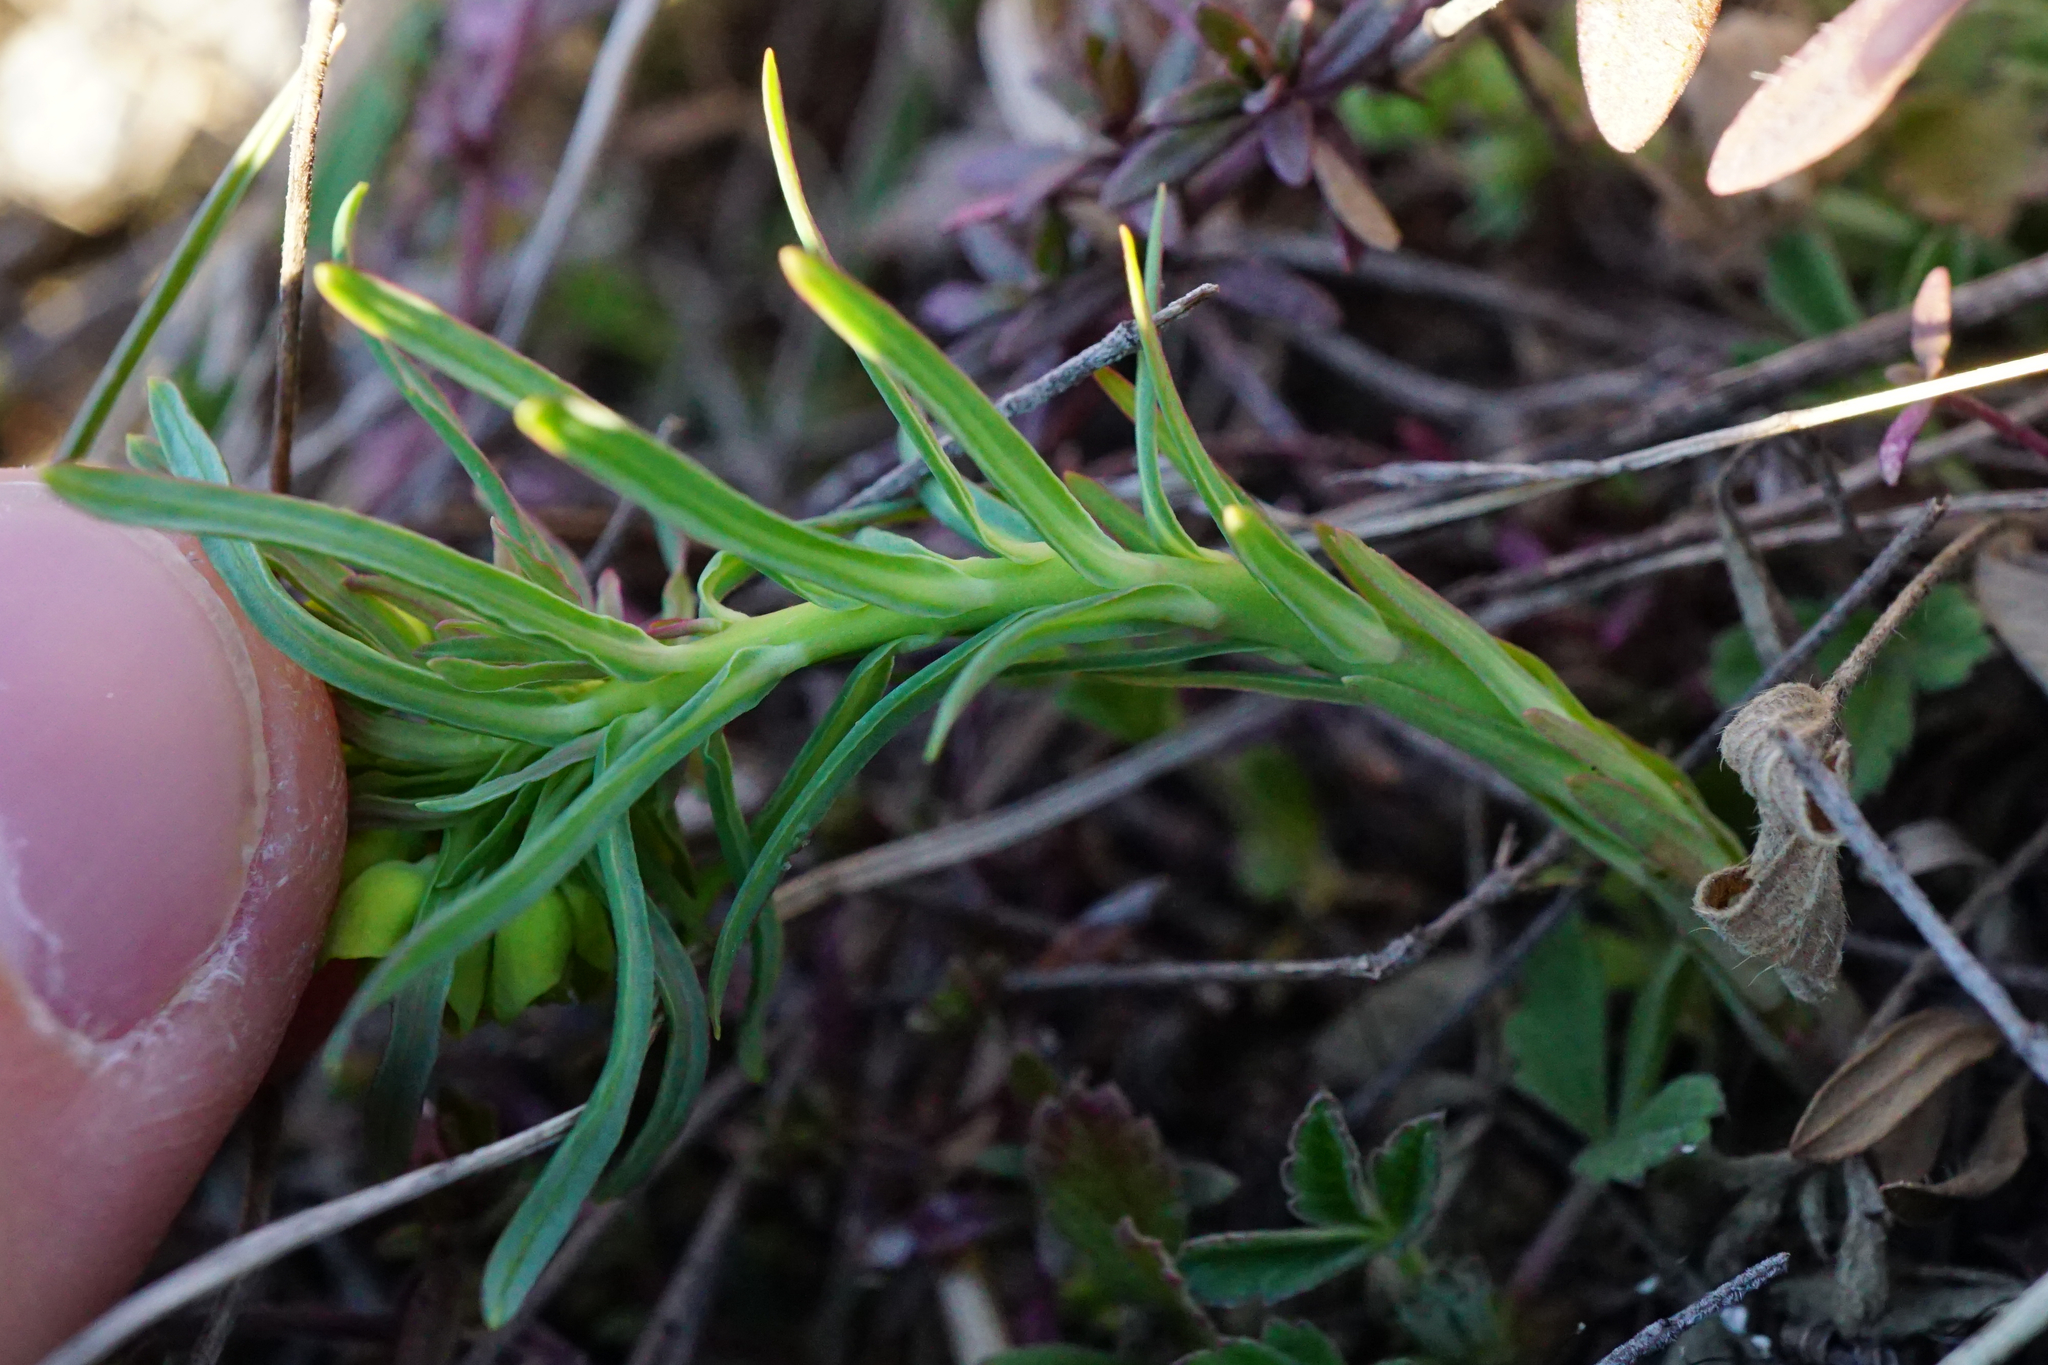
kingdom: Plantae
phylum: Tracheophyta
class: Magnoliopsida
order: Malpighiales
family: Euphorbiaceae
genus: Euphorbia
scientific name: Euphorbia cyparissias
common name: Cypress spurge
